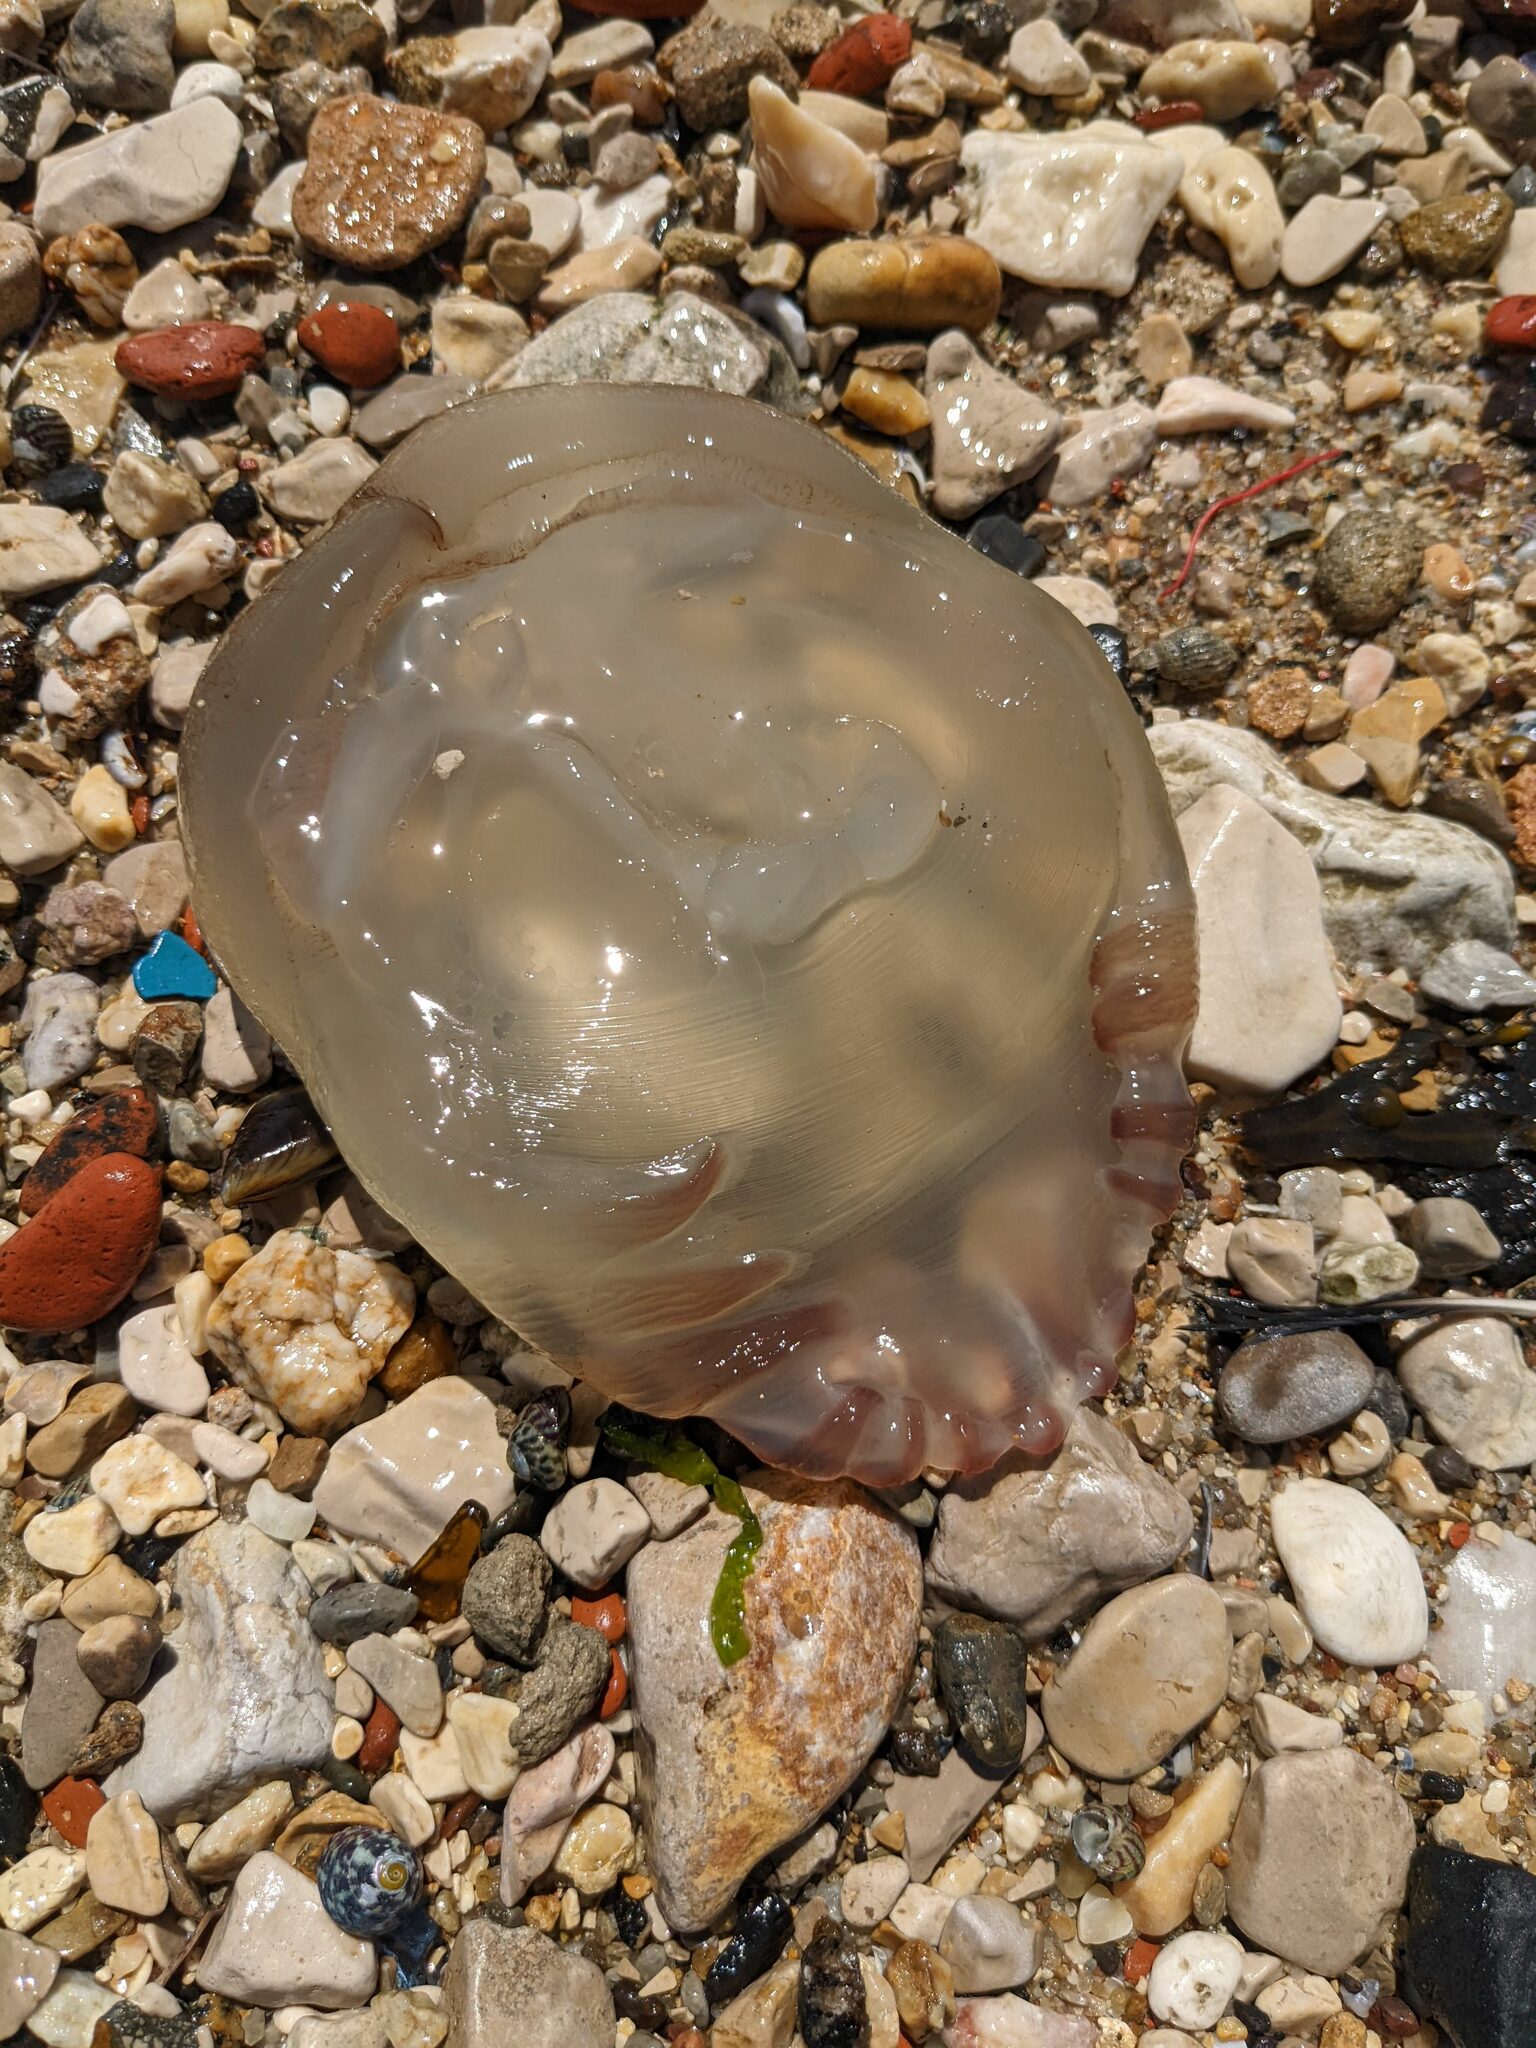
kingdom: Animalia
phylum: Cnidaria
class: Scyphozoa
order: Rhizostomeae
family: Catostylidae
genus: Catostylus
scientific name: Catostylus tagi
